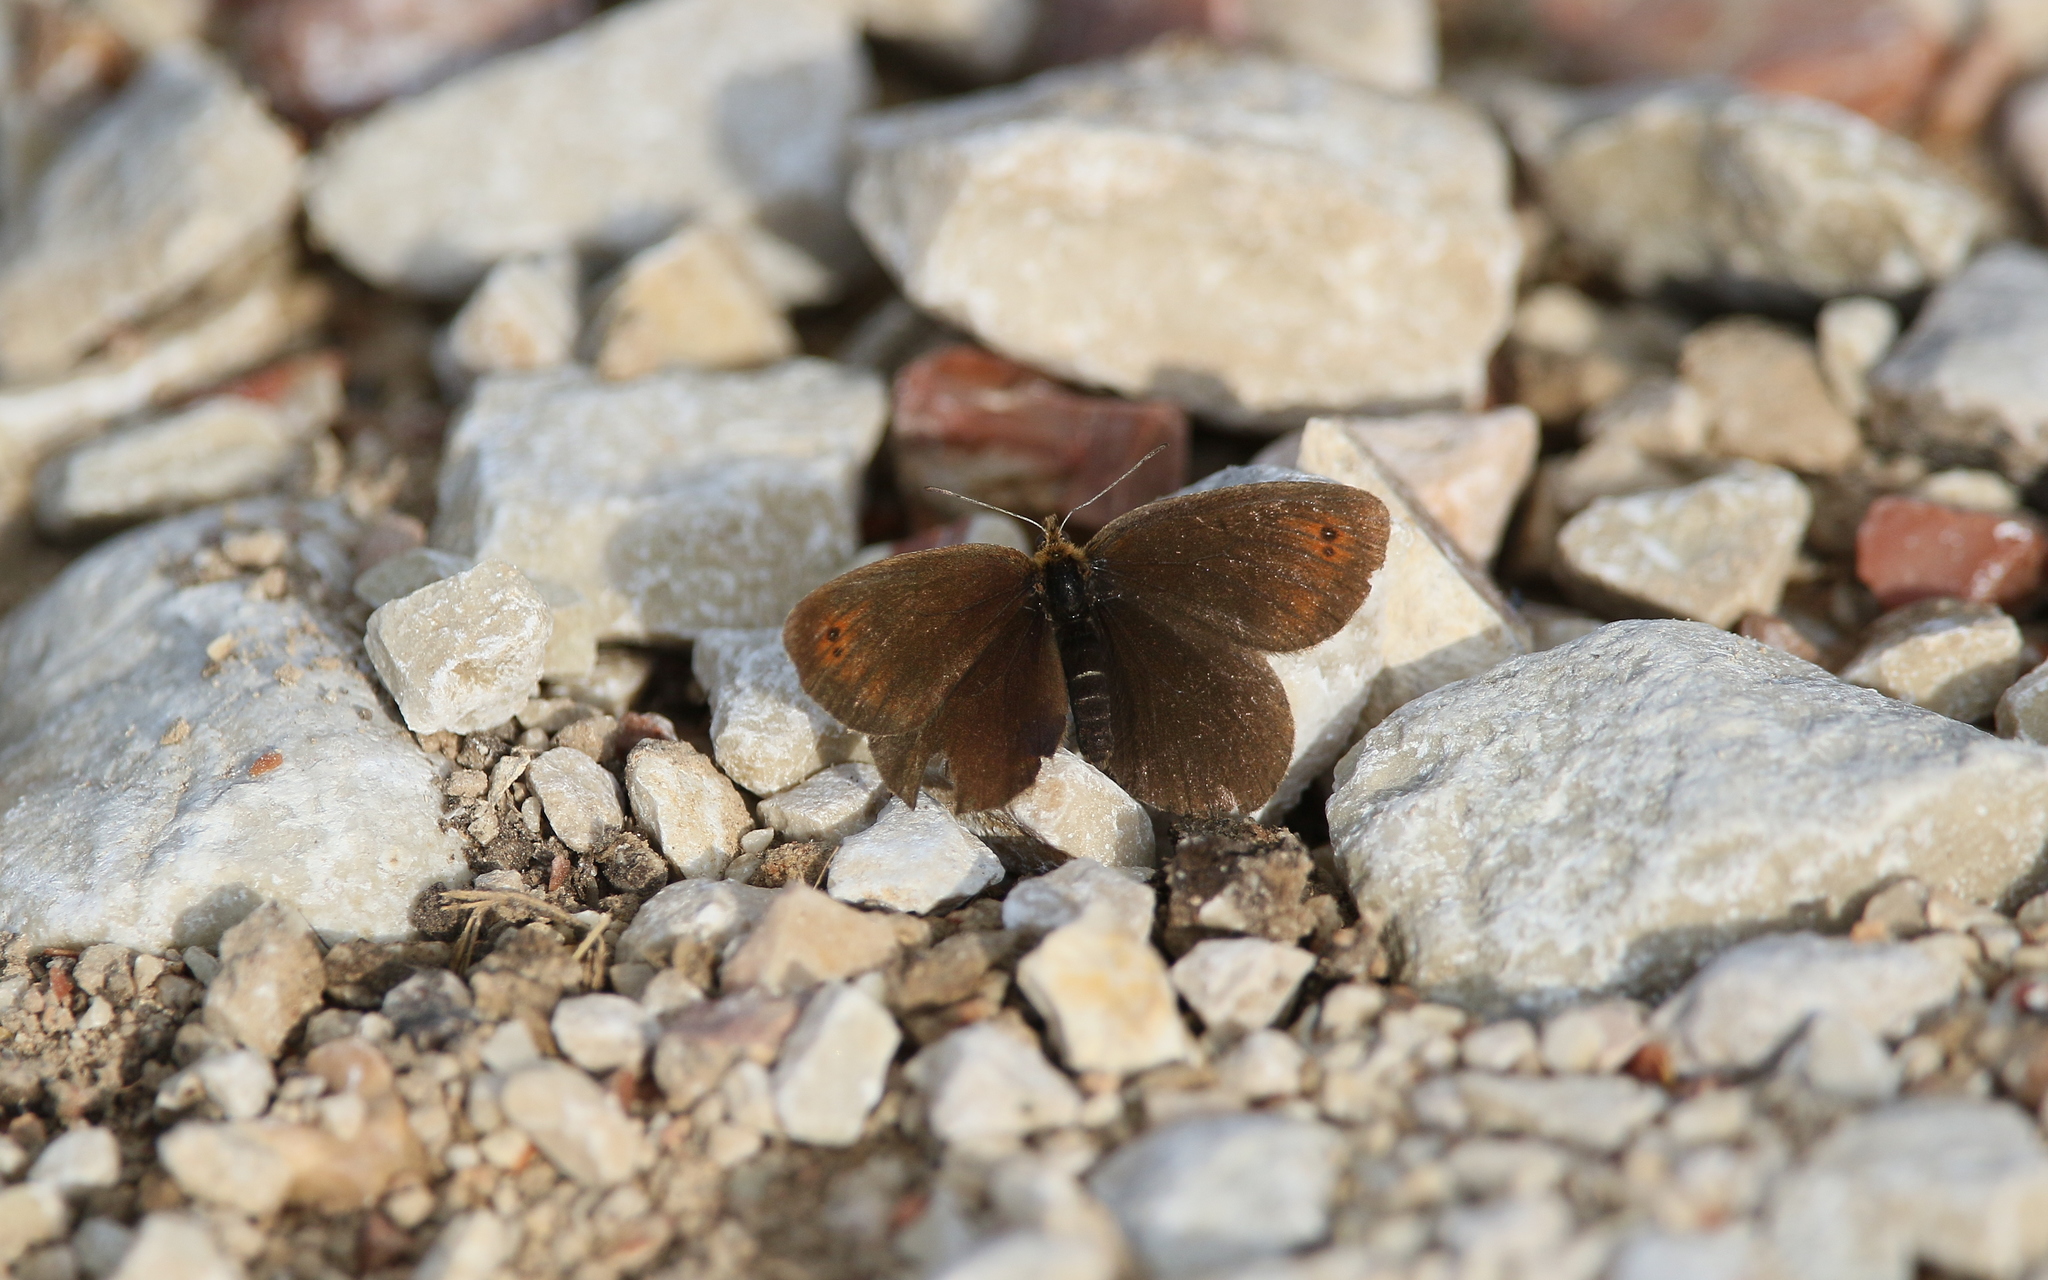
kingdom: Animalia
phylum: Arthropoda
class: Insecta
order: Lepidoptera
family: Nymphalidae
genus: Erebia
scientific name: Erebia pronoe
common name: Water ringlet
